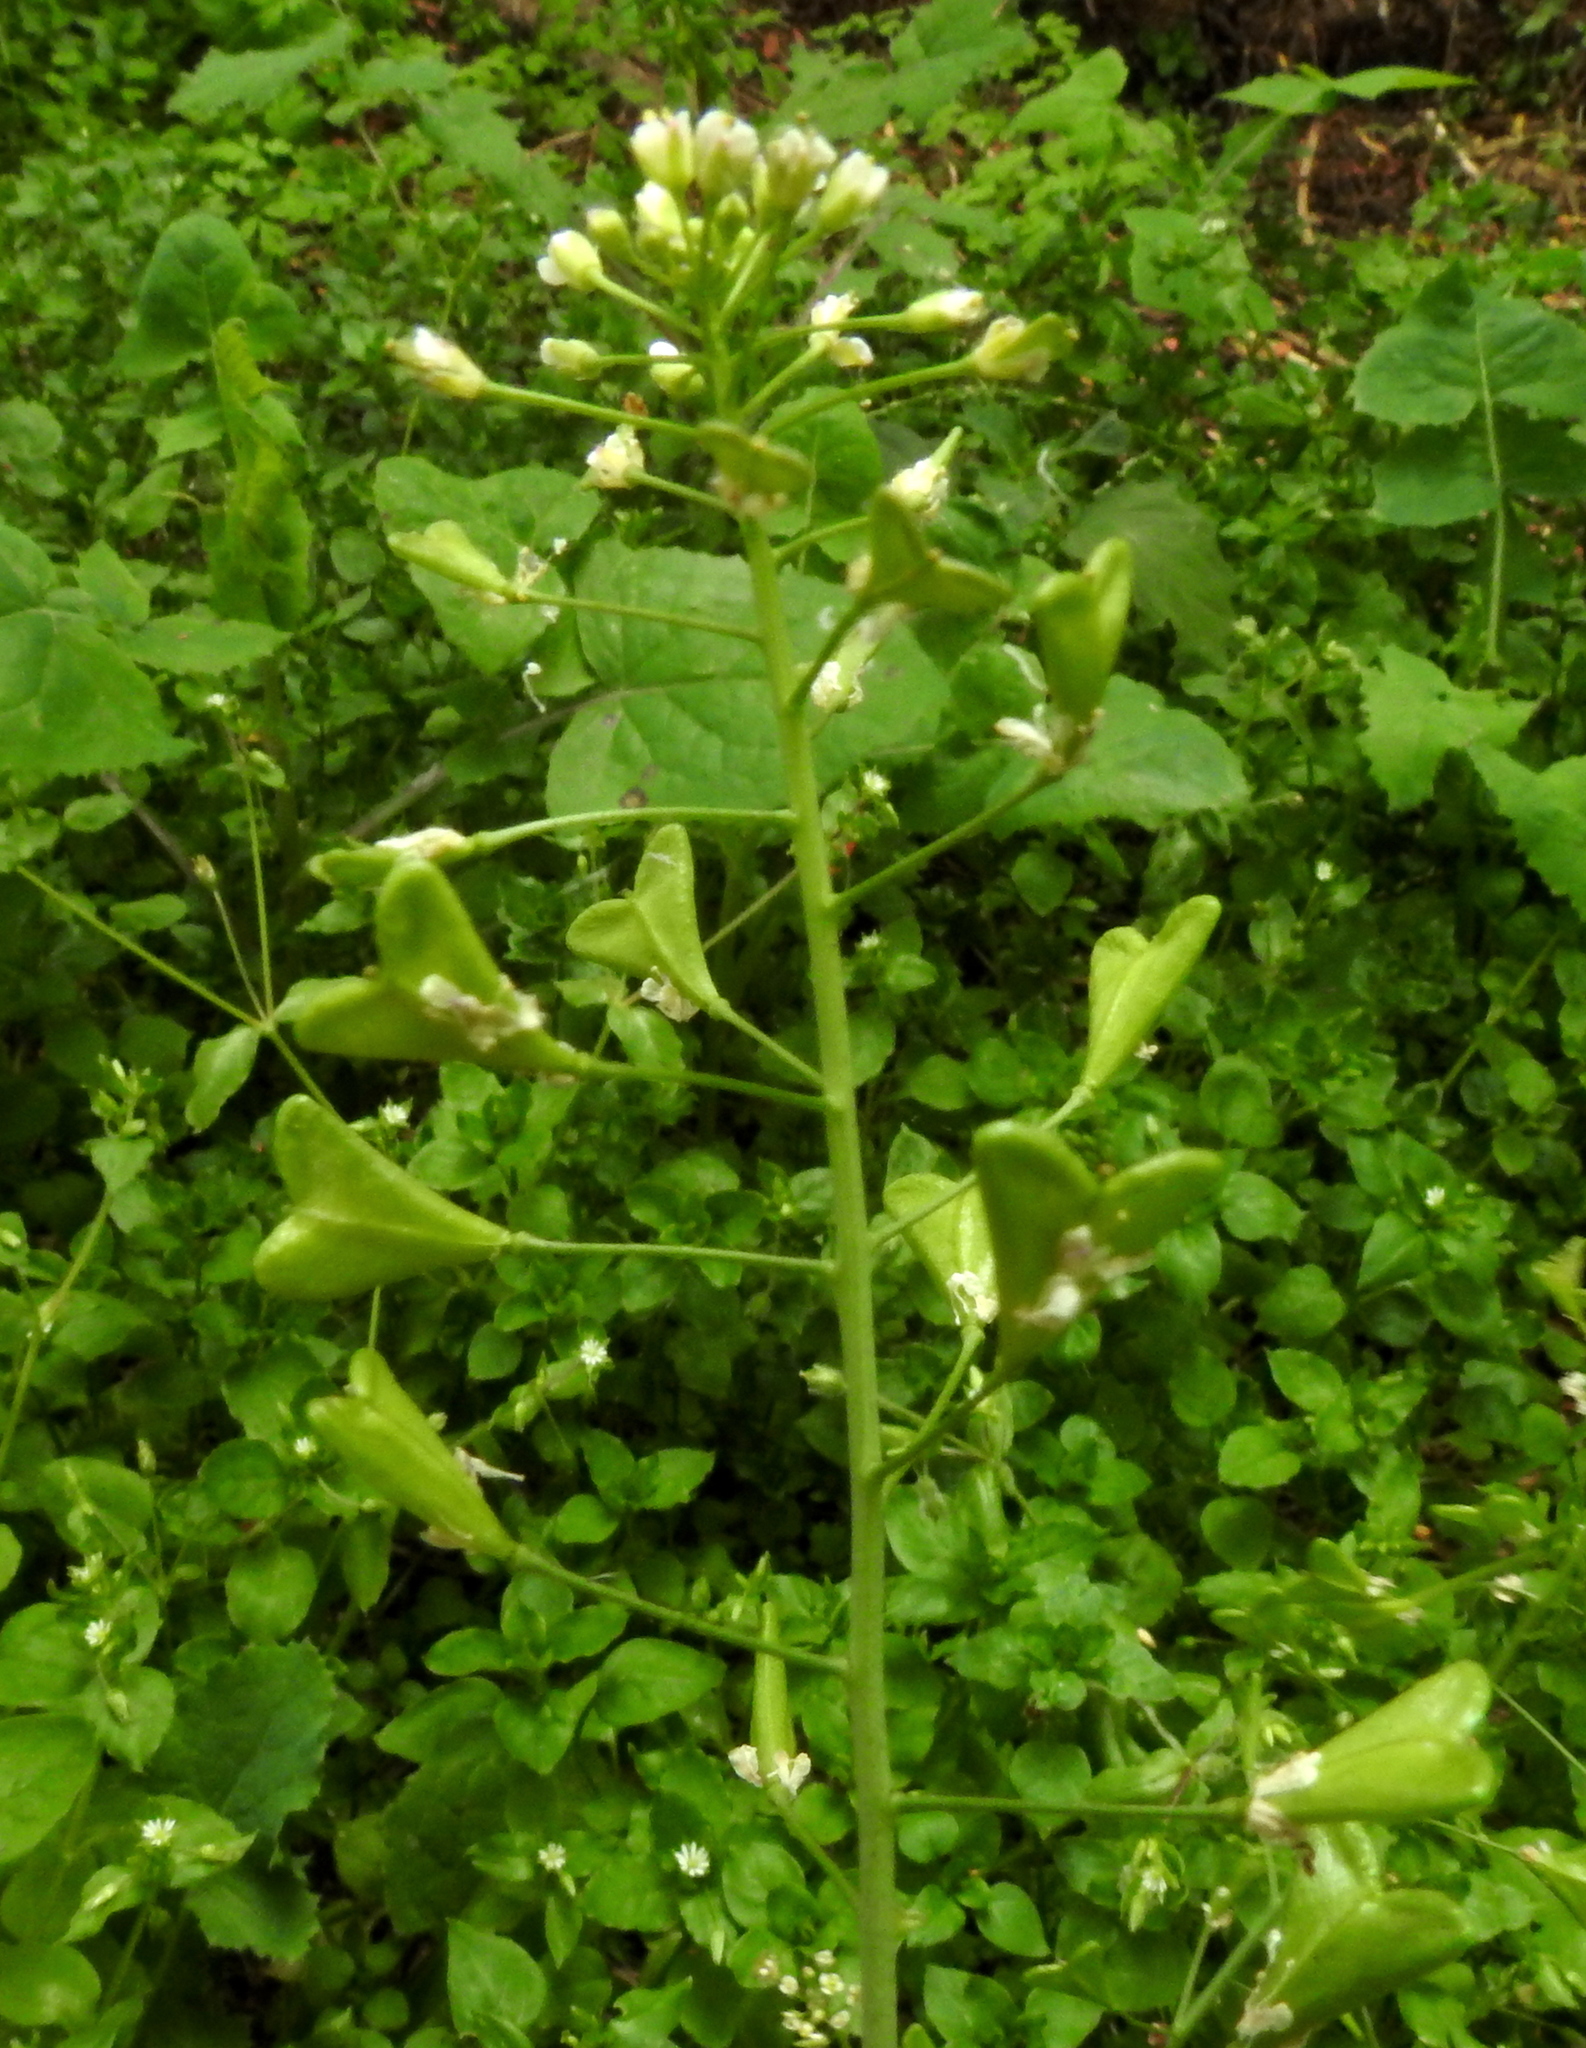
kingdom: Plantae
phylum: Tracheophyta
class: Magnoliopsida
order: Brassicales
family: Brassicaceae
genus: Capsella
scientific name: Capsella bursa-pastoris
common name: Shepherd's purse
